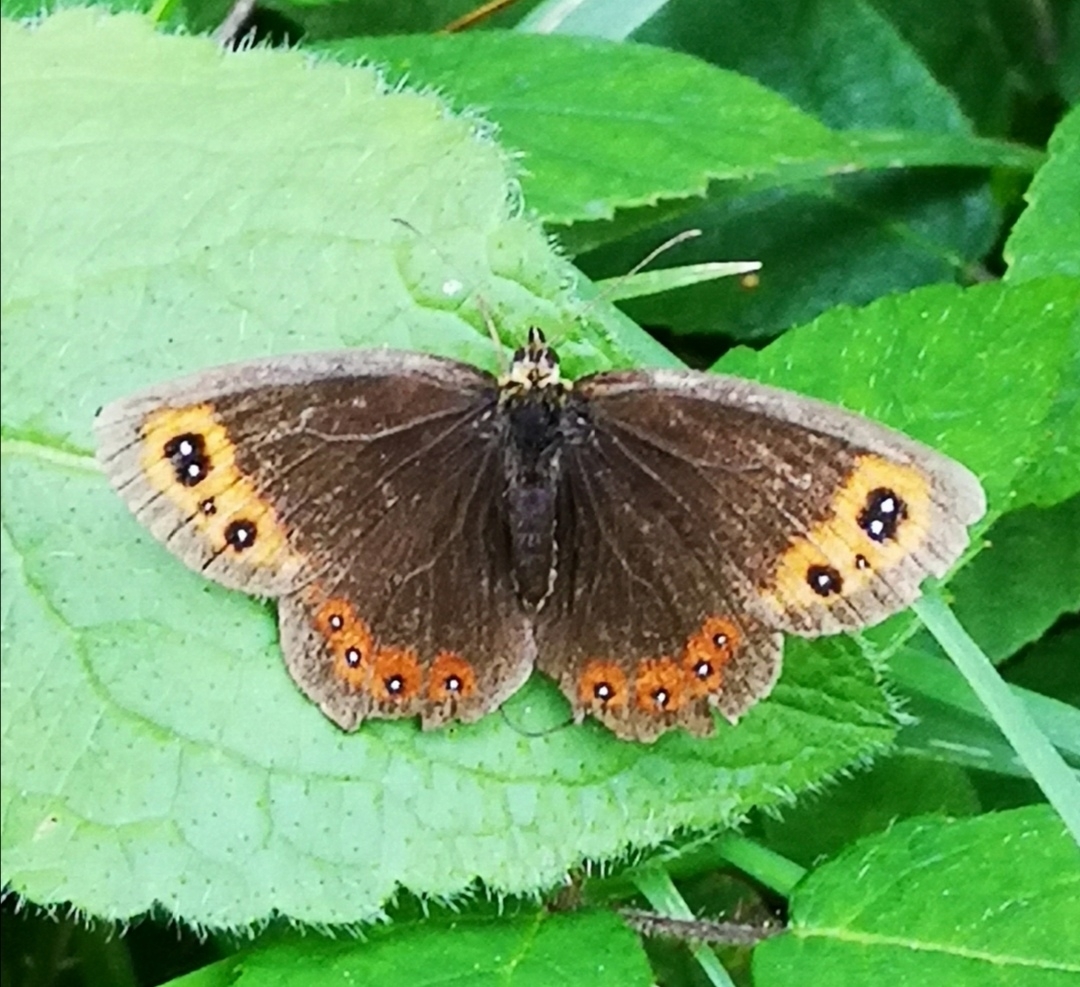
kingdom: Animalia
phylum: Arthropoda
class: Insecta
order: Lepidoptera
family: Nymphalidae
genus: Erebia
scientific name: Erebia aethiops
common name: Scotch argus
